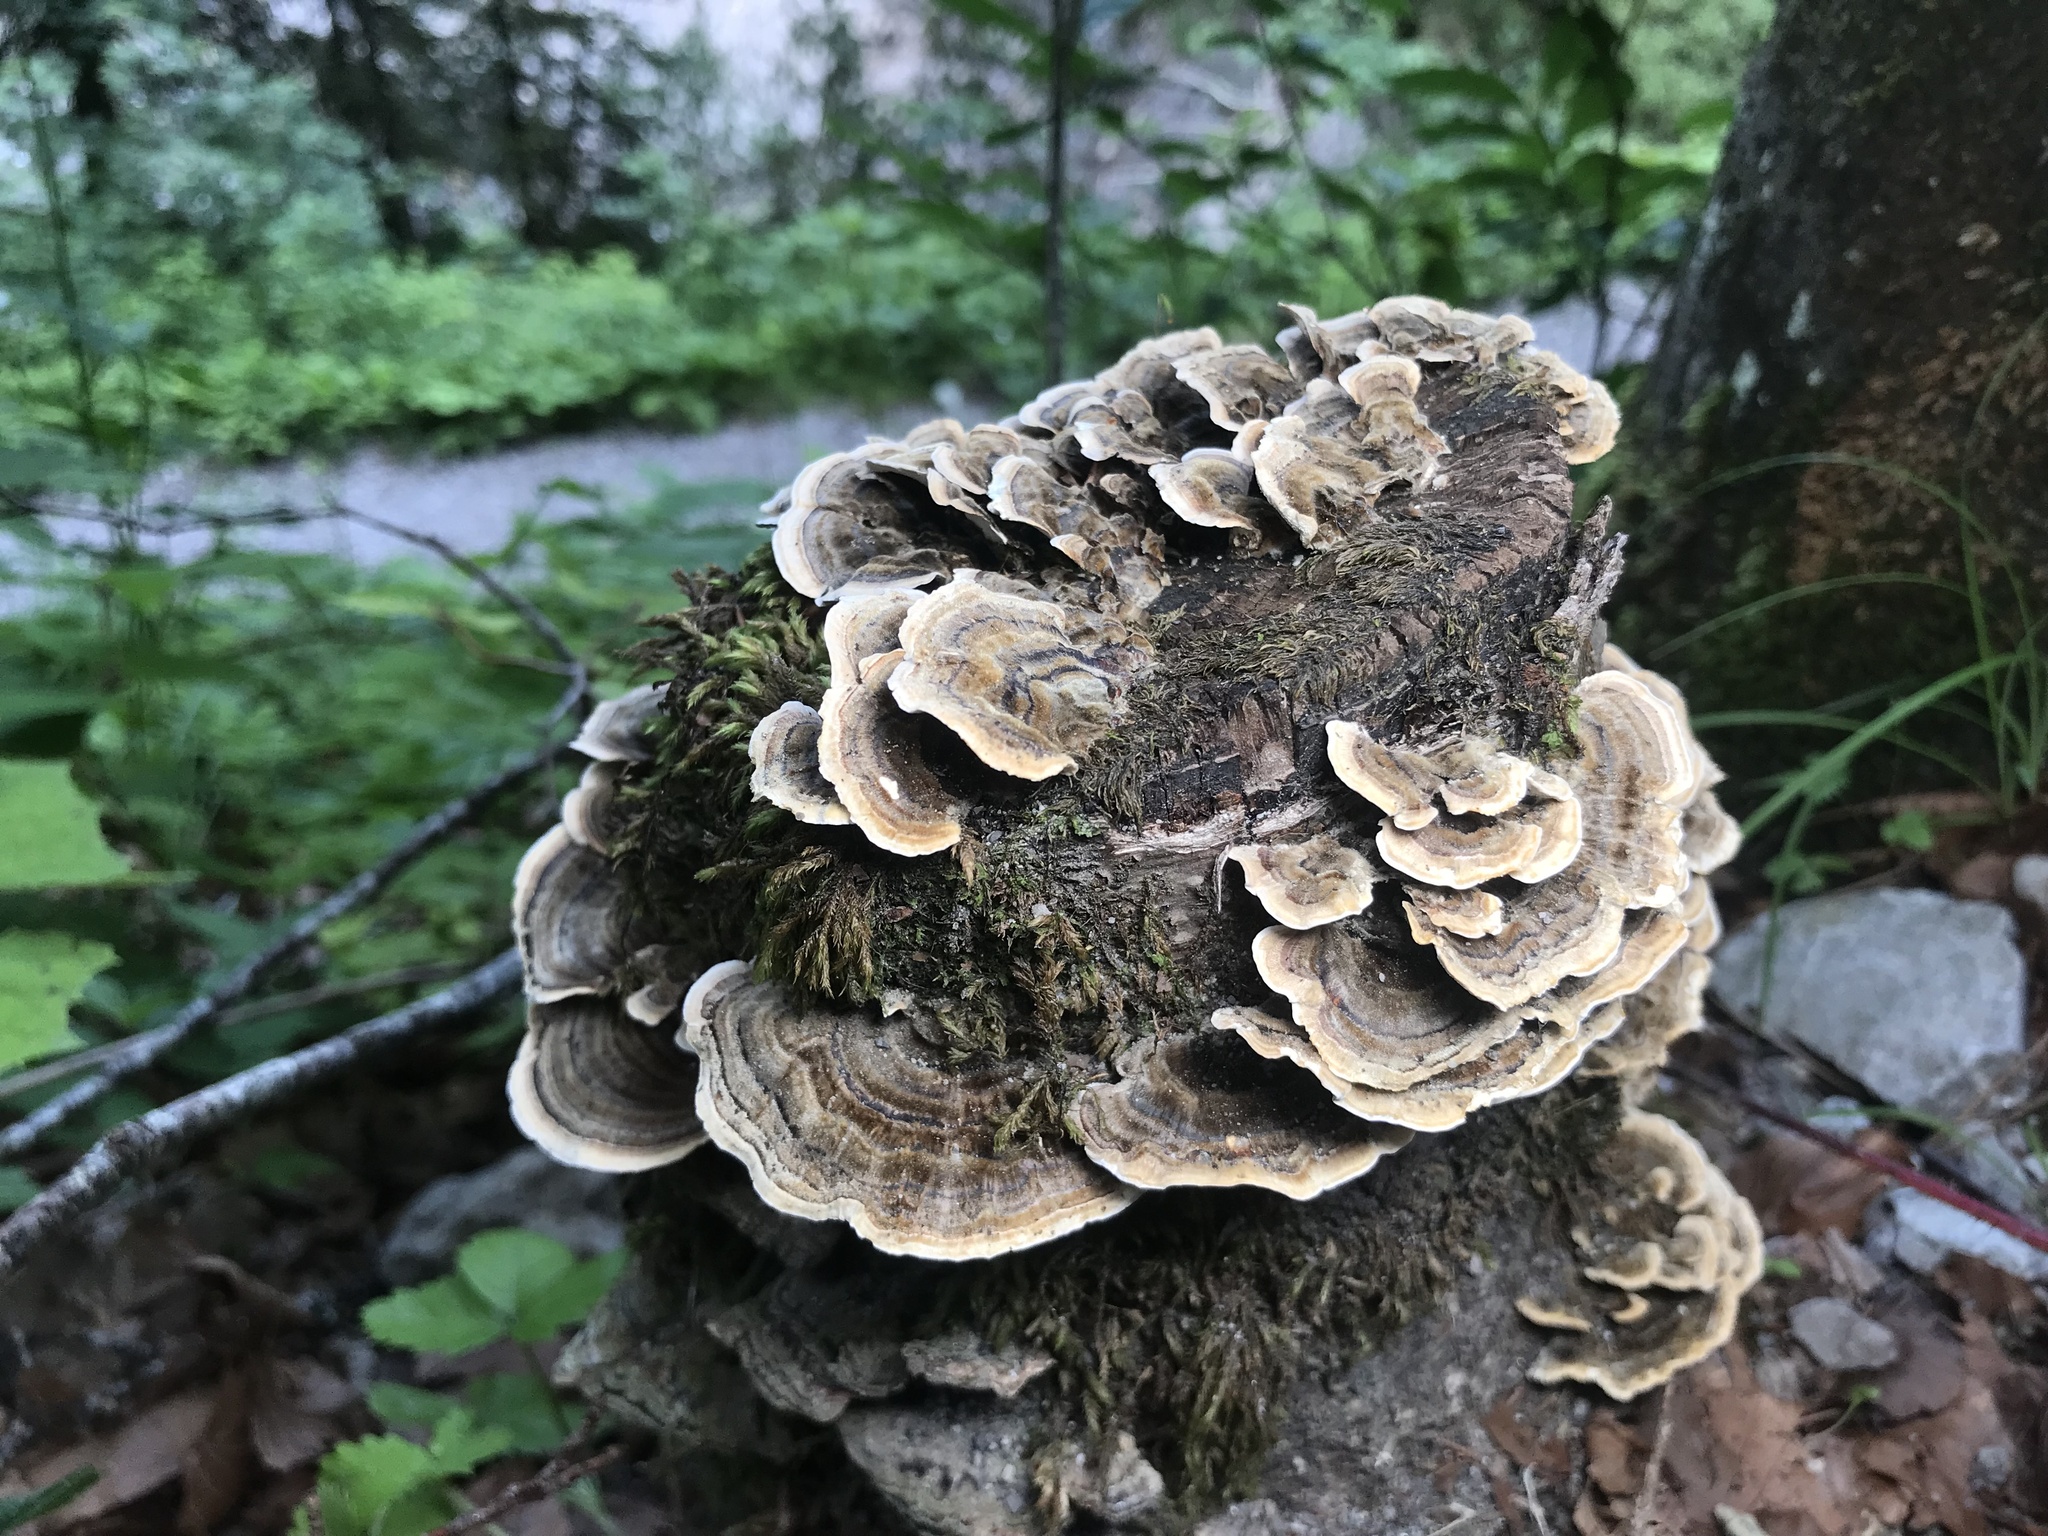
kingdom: Fungi
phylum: Basidiomycota
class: Agaricomycetes
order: Polyporales
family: Polyporaceae
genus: Trametes
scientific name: Trametes versicolor
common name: Turkeytail
